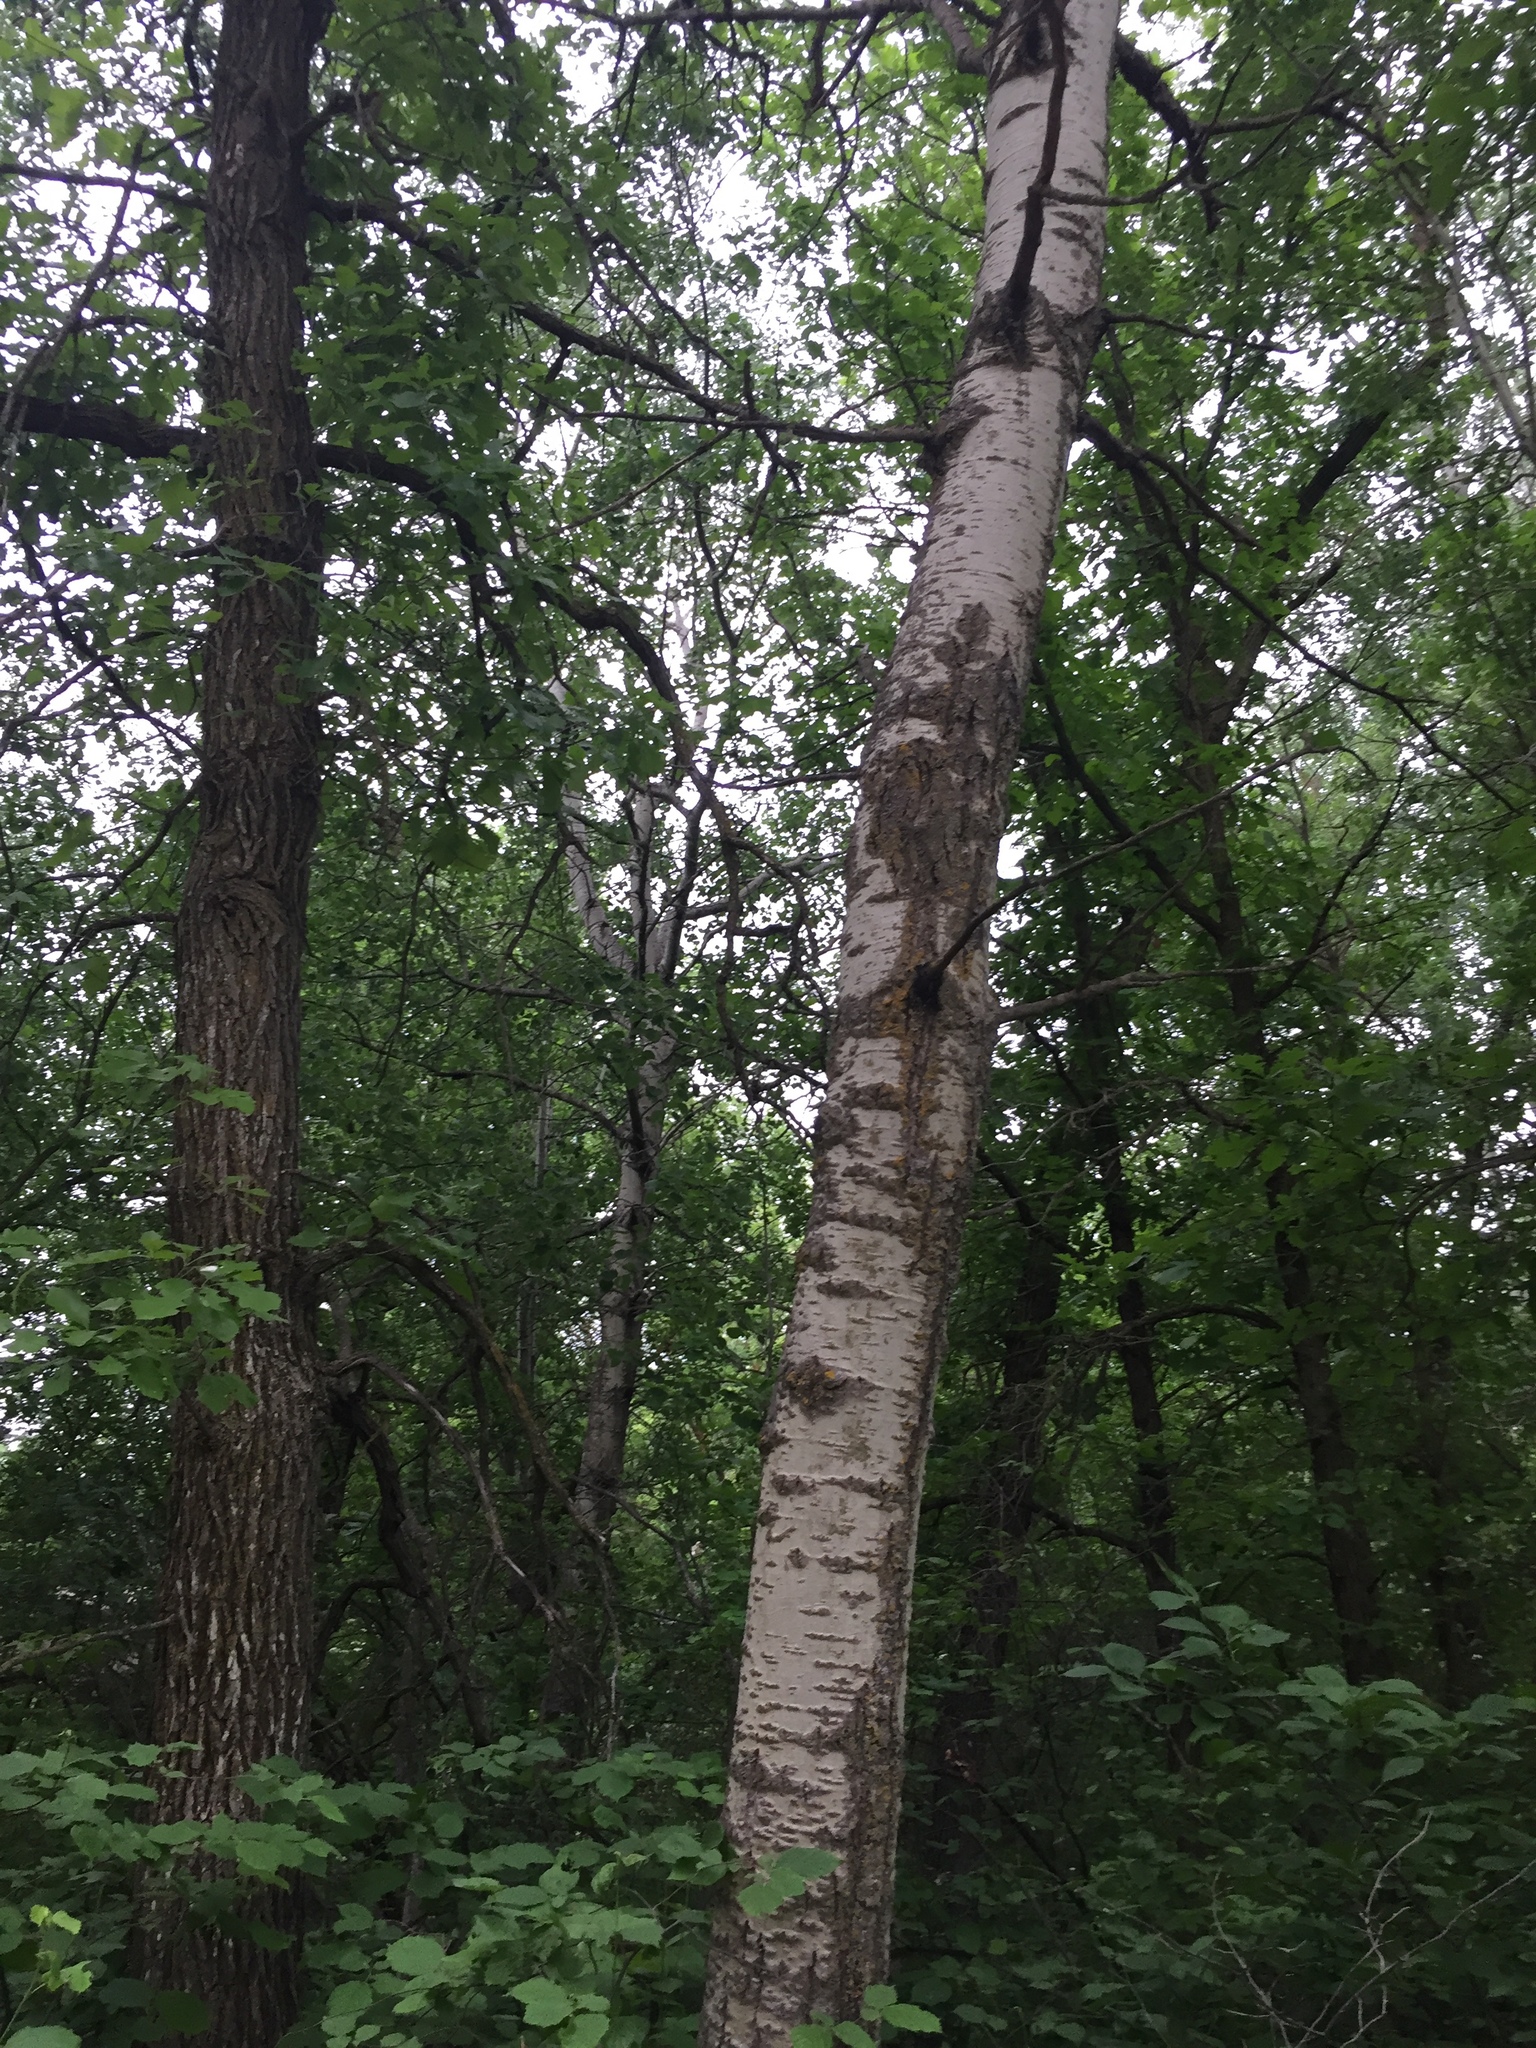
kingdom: Plantae
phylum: Tracheophyta
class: Magnoliopsida
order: Malpighiales
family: Salicaceae
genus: Populus
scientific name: Populus tremuloides
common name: Quaking aspen
